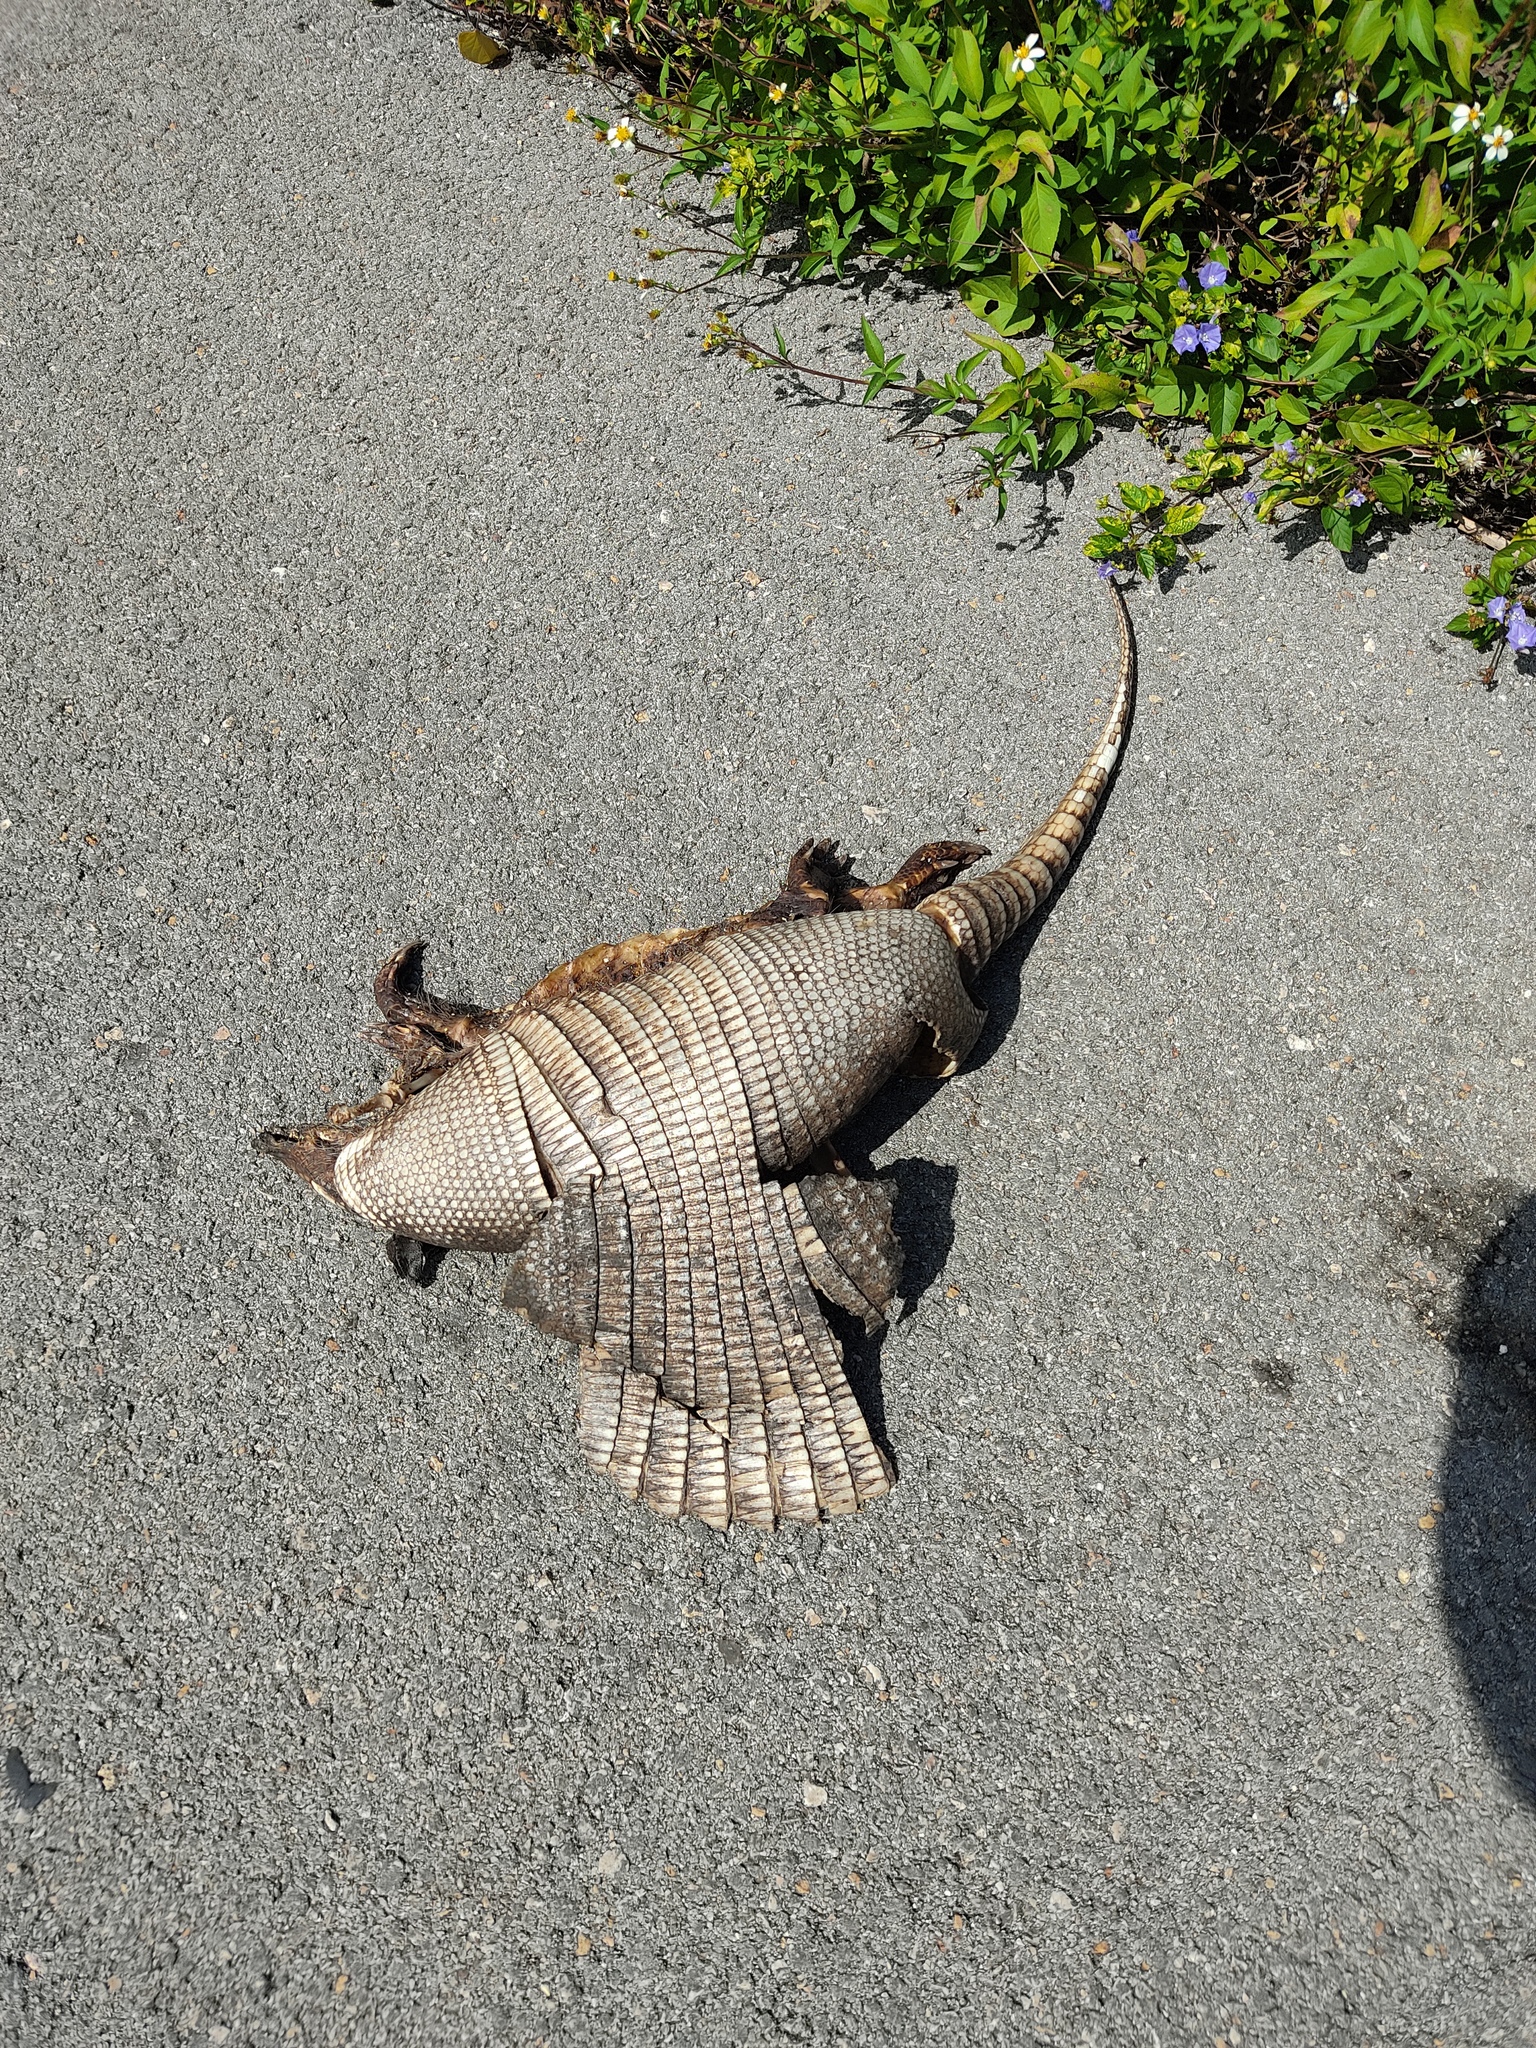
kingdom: Animalia
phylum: Chordata
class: Mammalia
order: Cingulata
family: Dasypodidae
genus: Dasypus
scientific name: Dasypus novemcinctus
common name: Nine-banded armadillo
